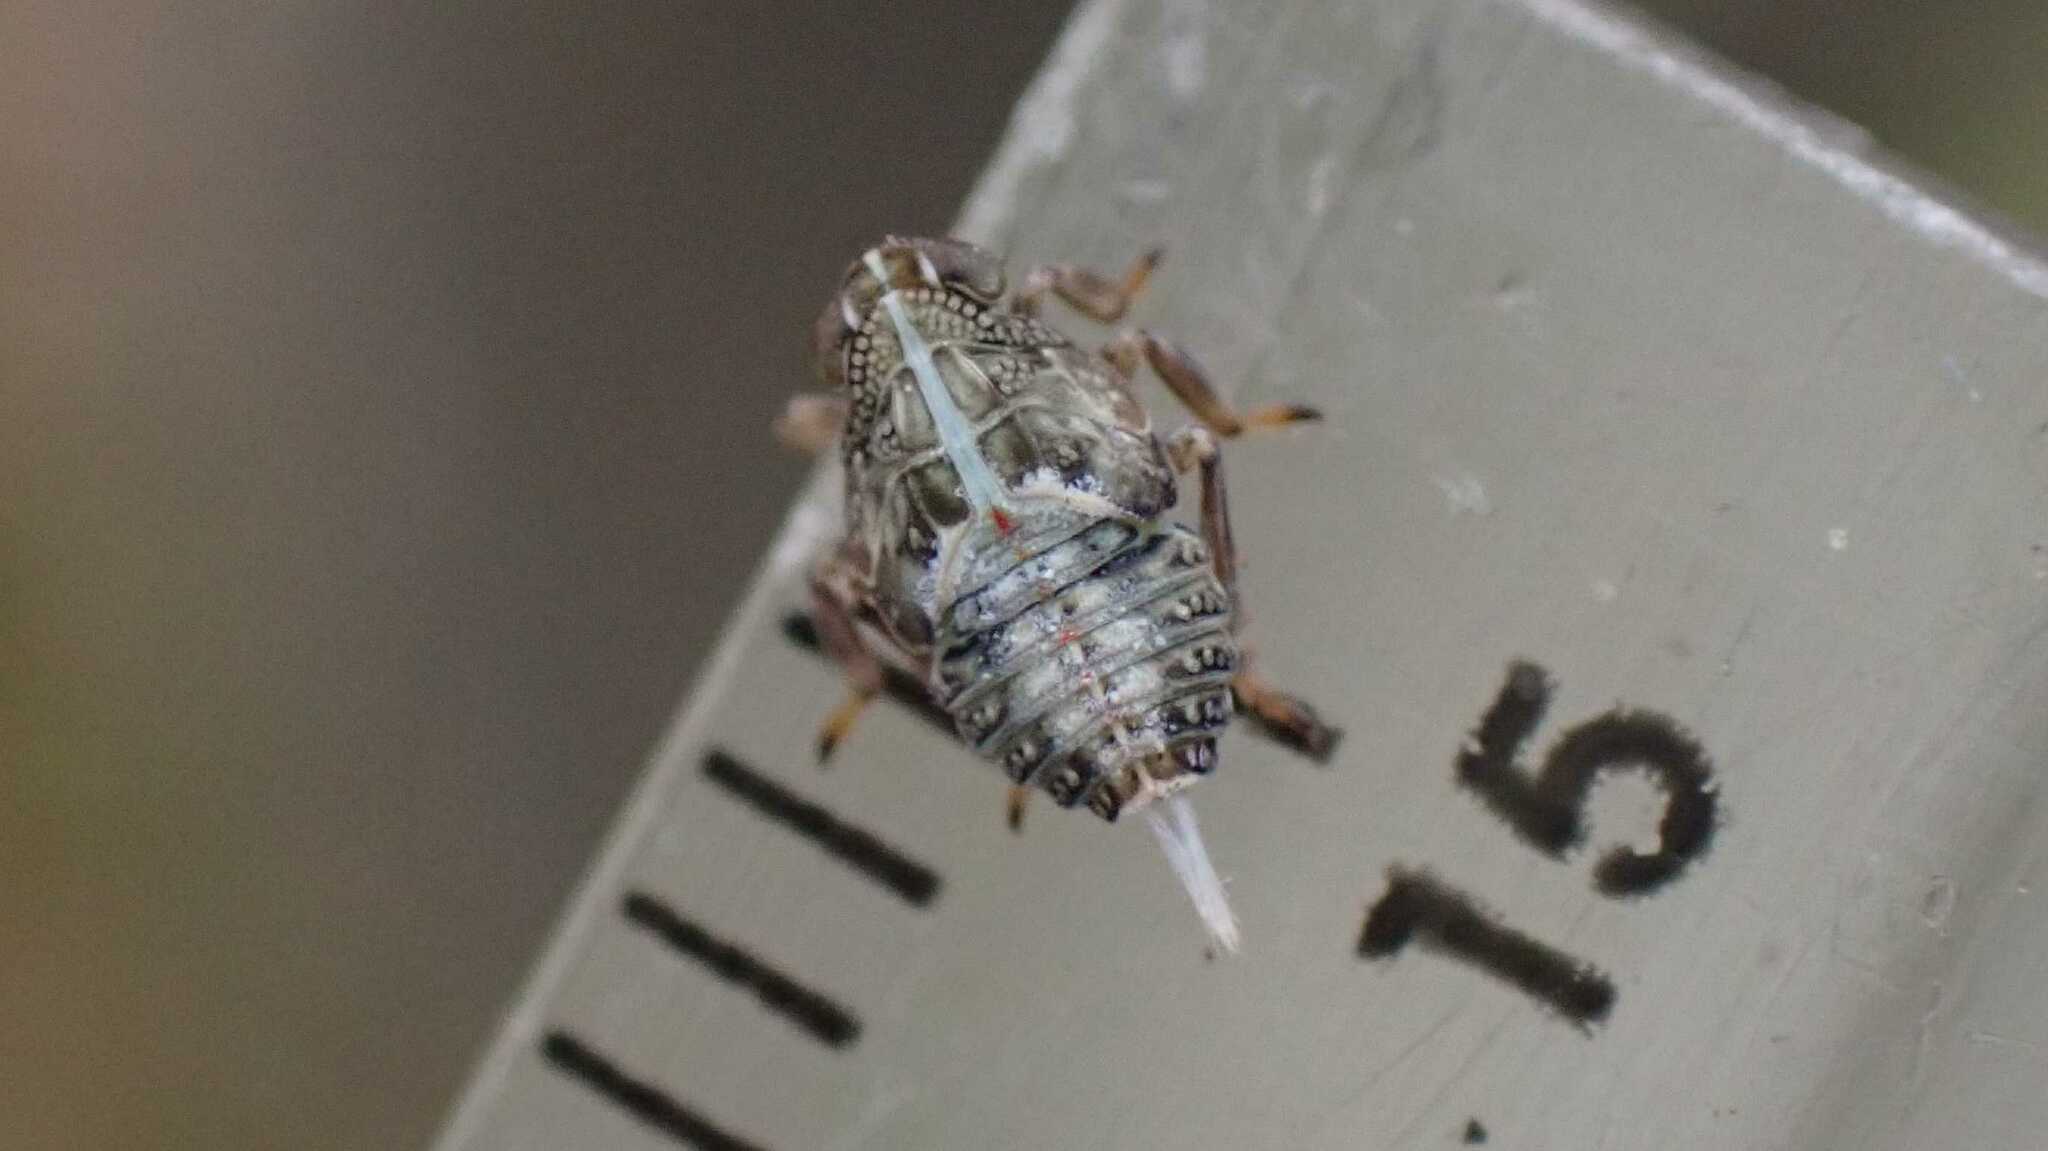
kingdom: Animalia
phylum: Arthropoda
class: Insecta
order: Hemiptera
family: Issidae
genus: Issus
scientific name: Issus coleoptratus
